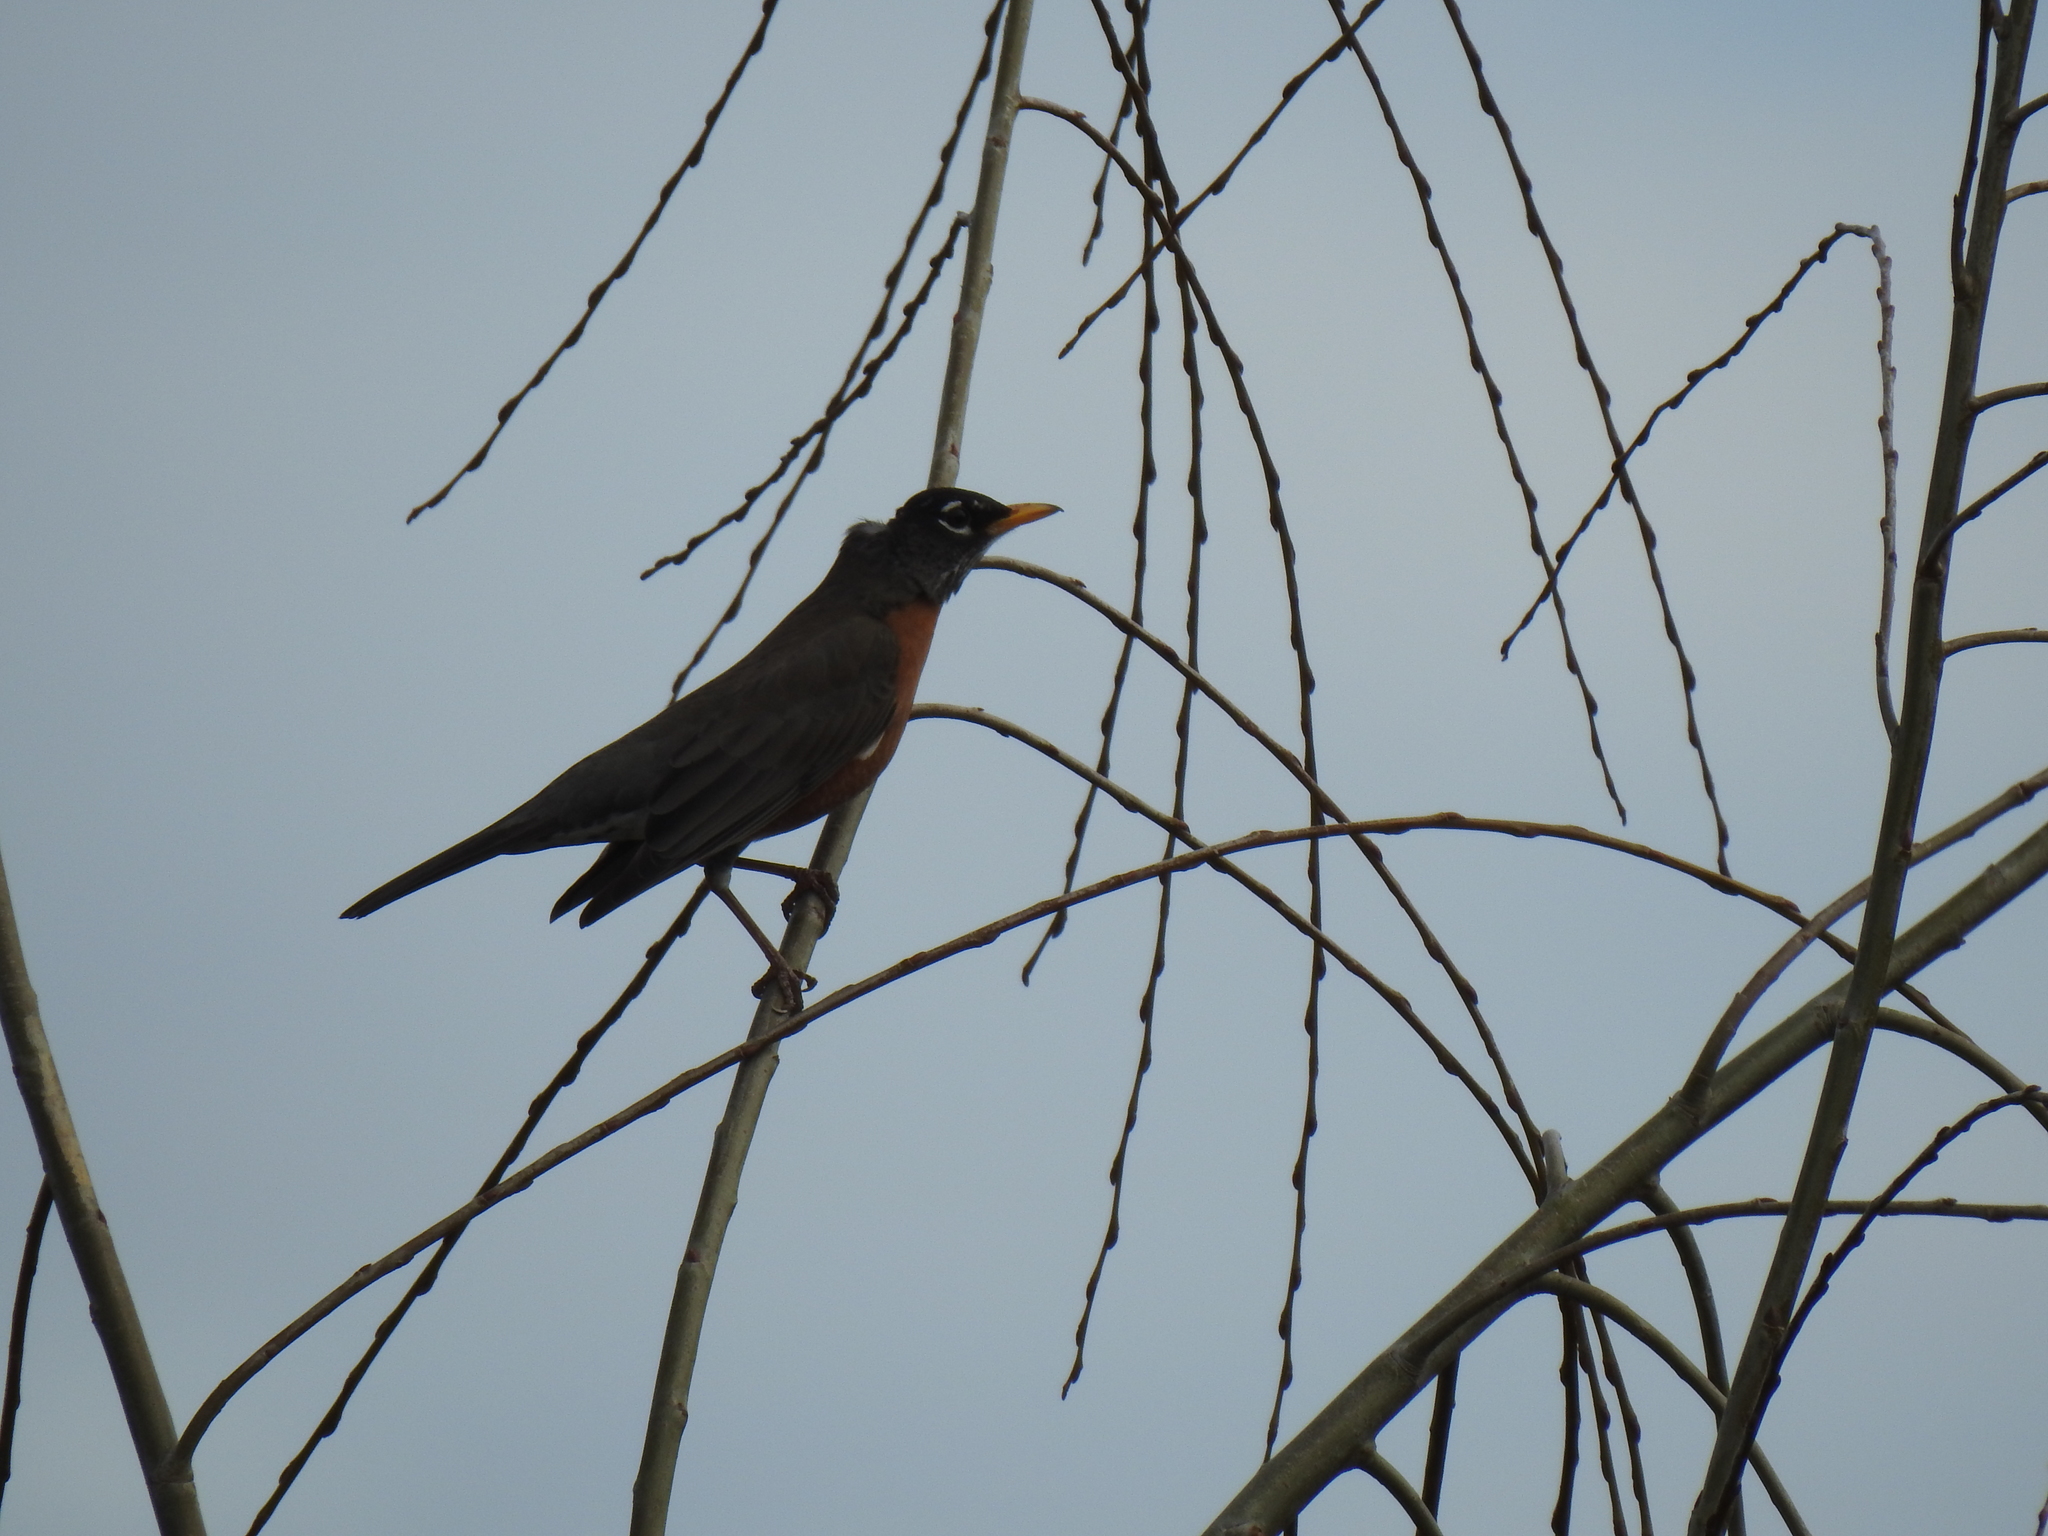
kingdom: Animalia
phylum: Chordata
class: Aves
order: Passeriformes
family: Turdidae
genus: Turdus
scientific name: Turdus migratorius
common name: American robin
